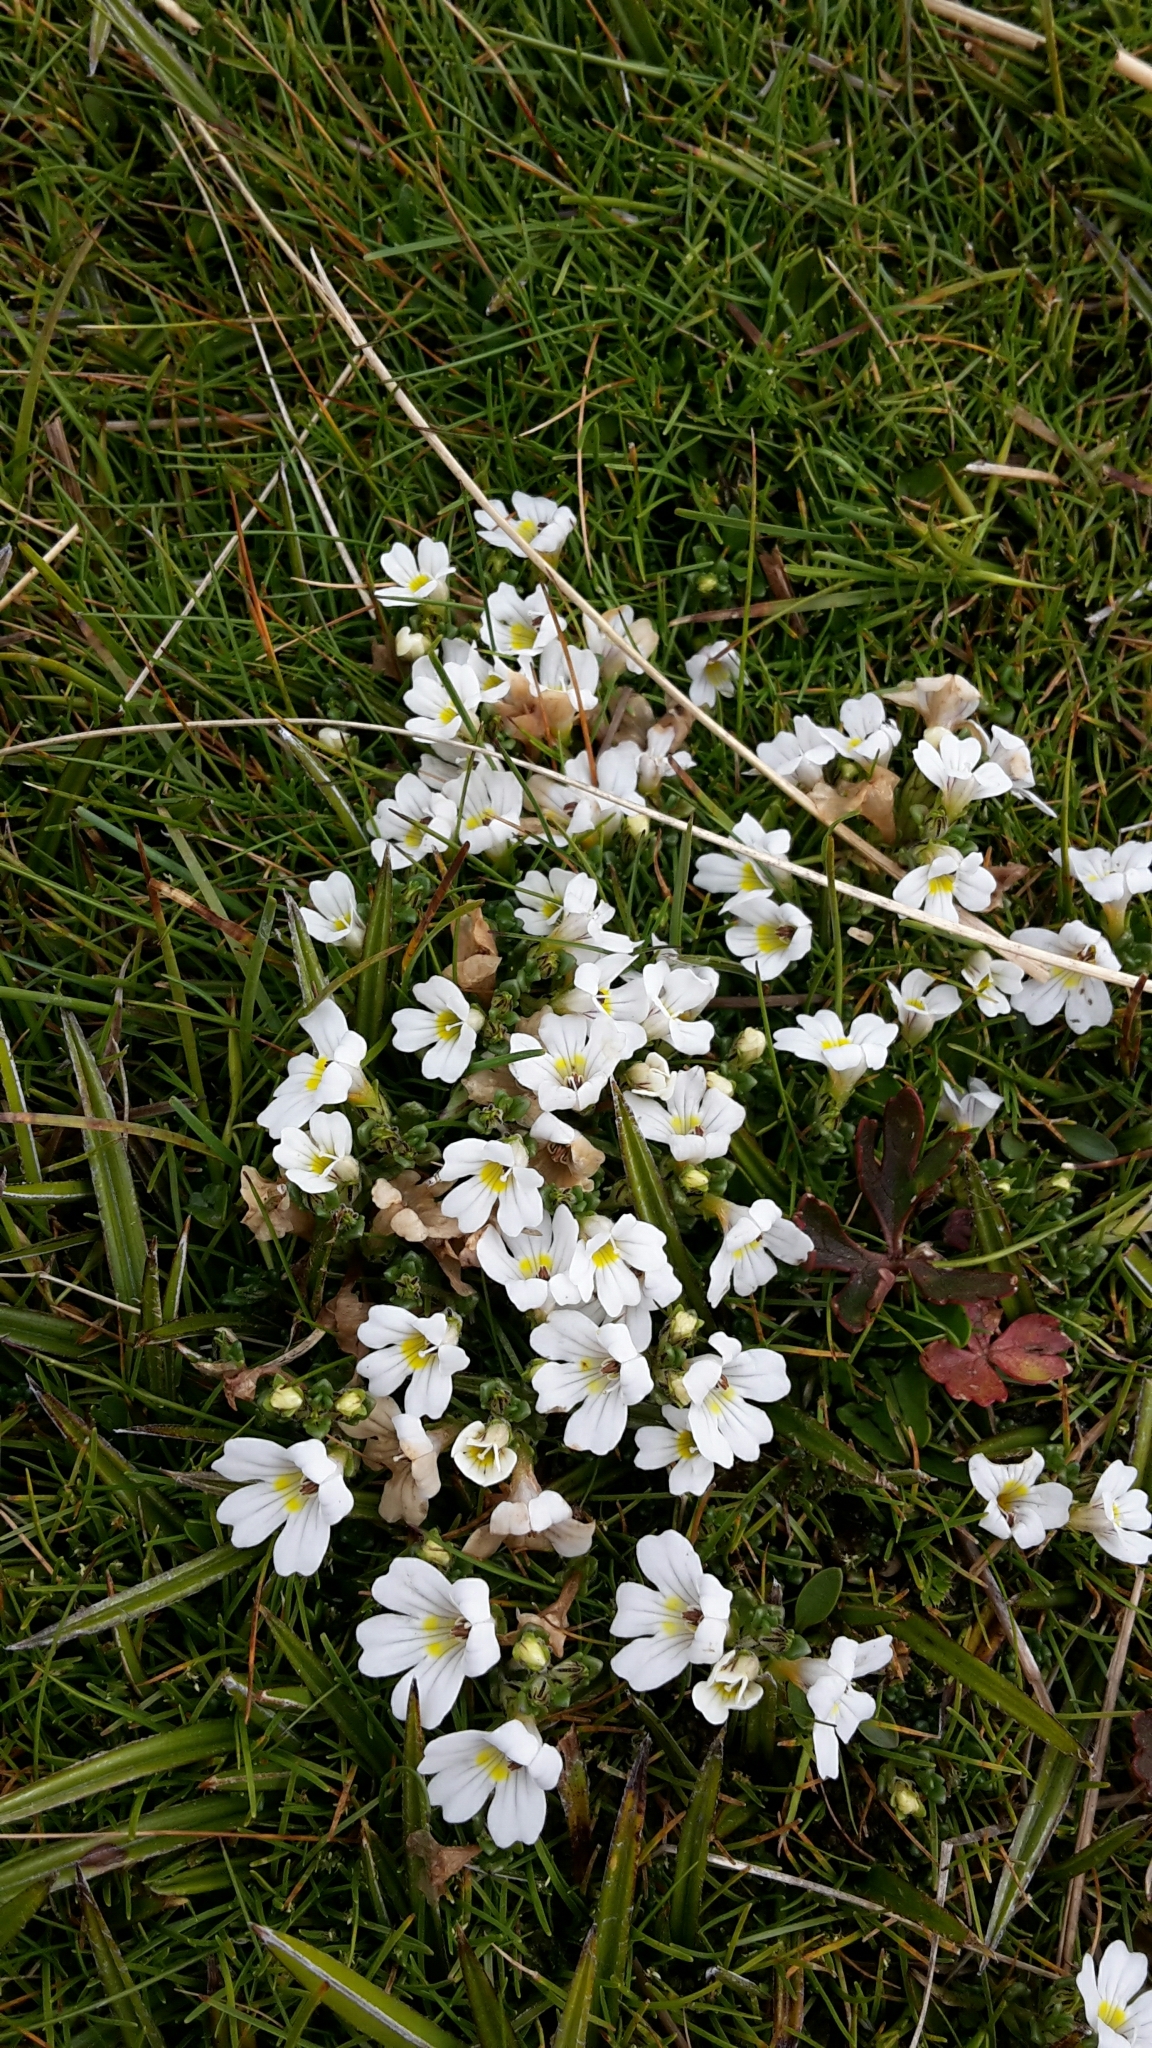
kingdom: Plantae
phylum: Tracheophyta
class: Magnoliopsida
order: Lamiales
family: Orobanchaceae
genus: Euphrasia
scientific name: Euphrasia revoluta
